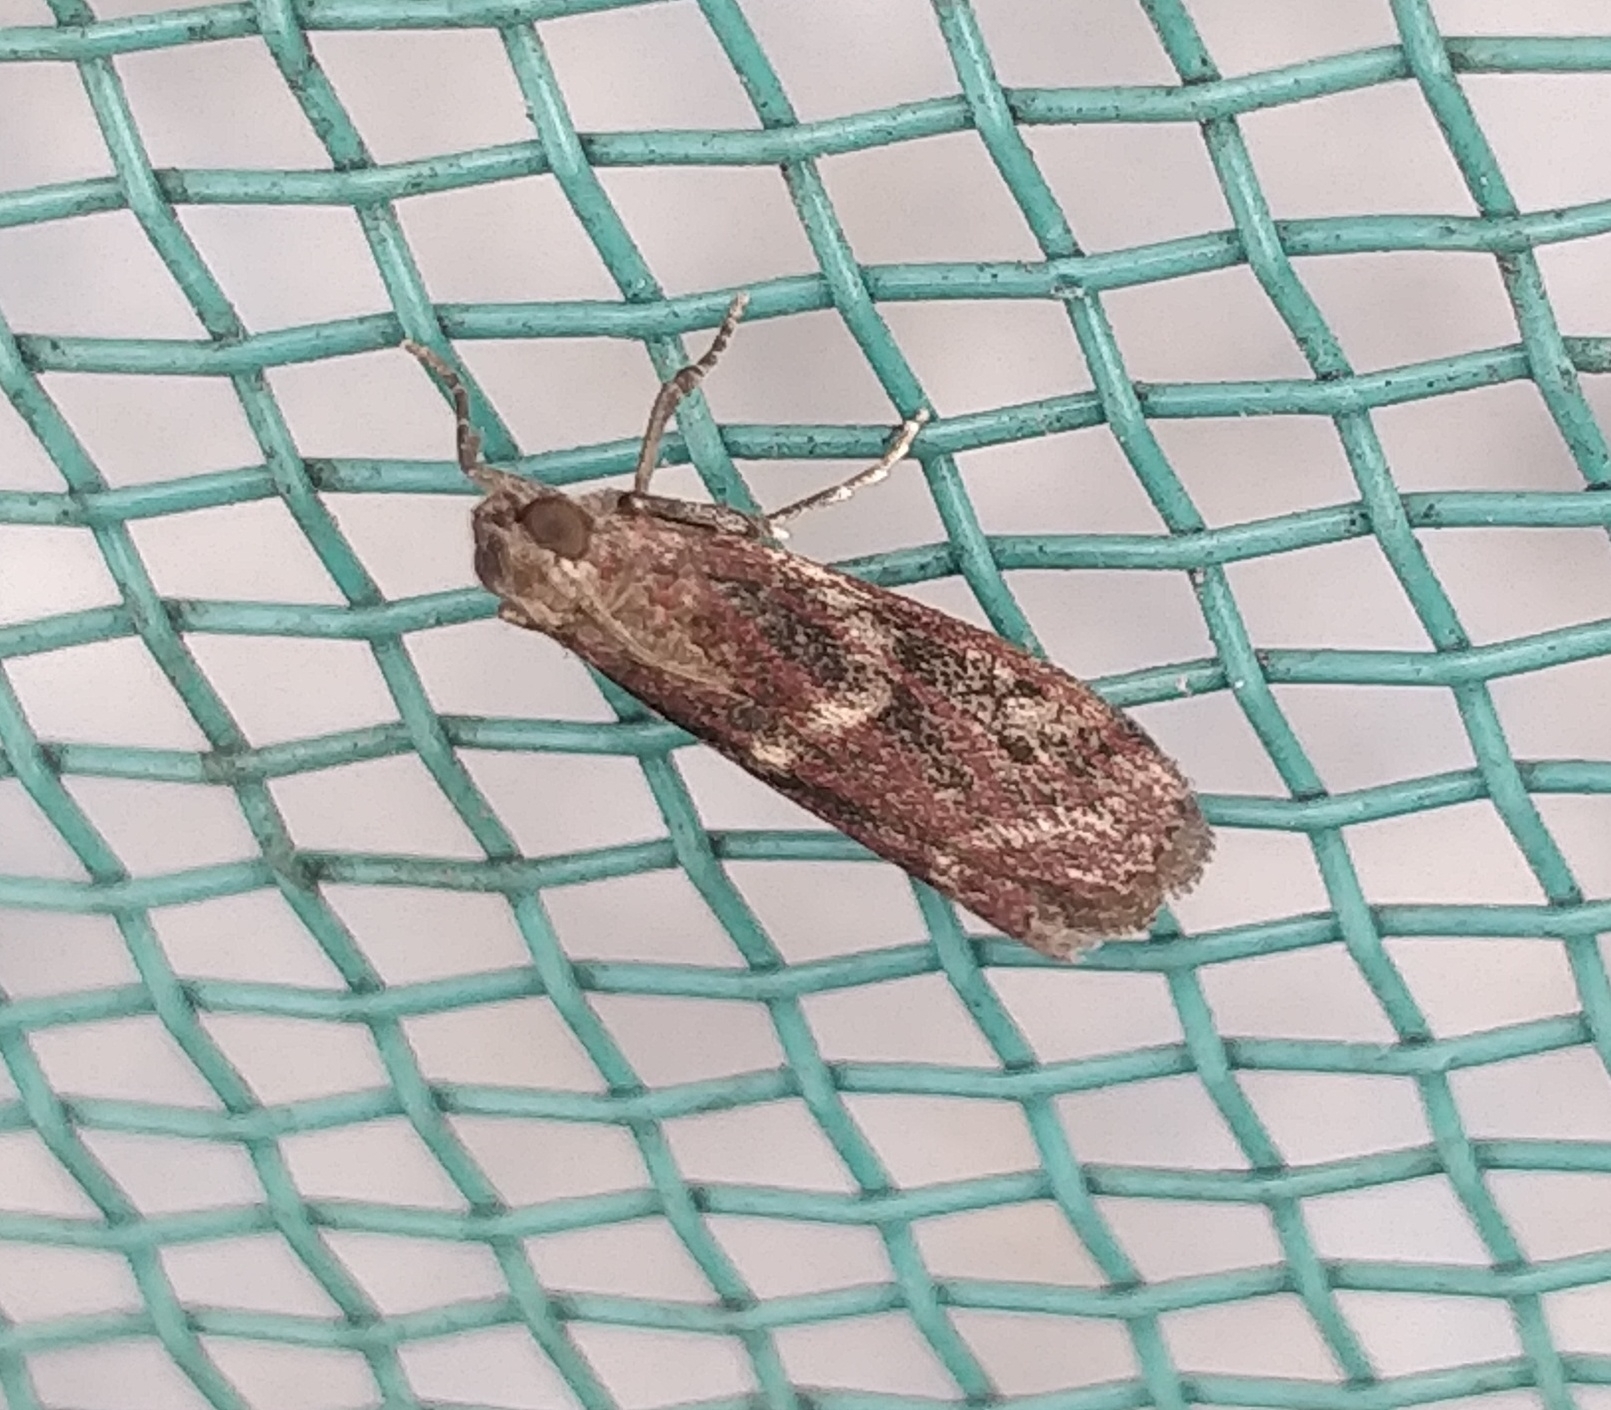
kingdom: Animalia
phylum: Arthropoda
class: Insecta
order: Lepidoptera
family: Pyralidae
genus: Cryptoblabes
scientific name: Cryptoblabes gnidiella
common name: Honeydew moth
